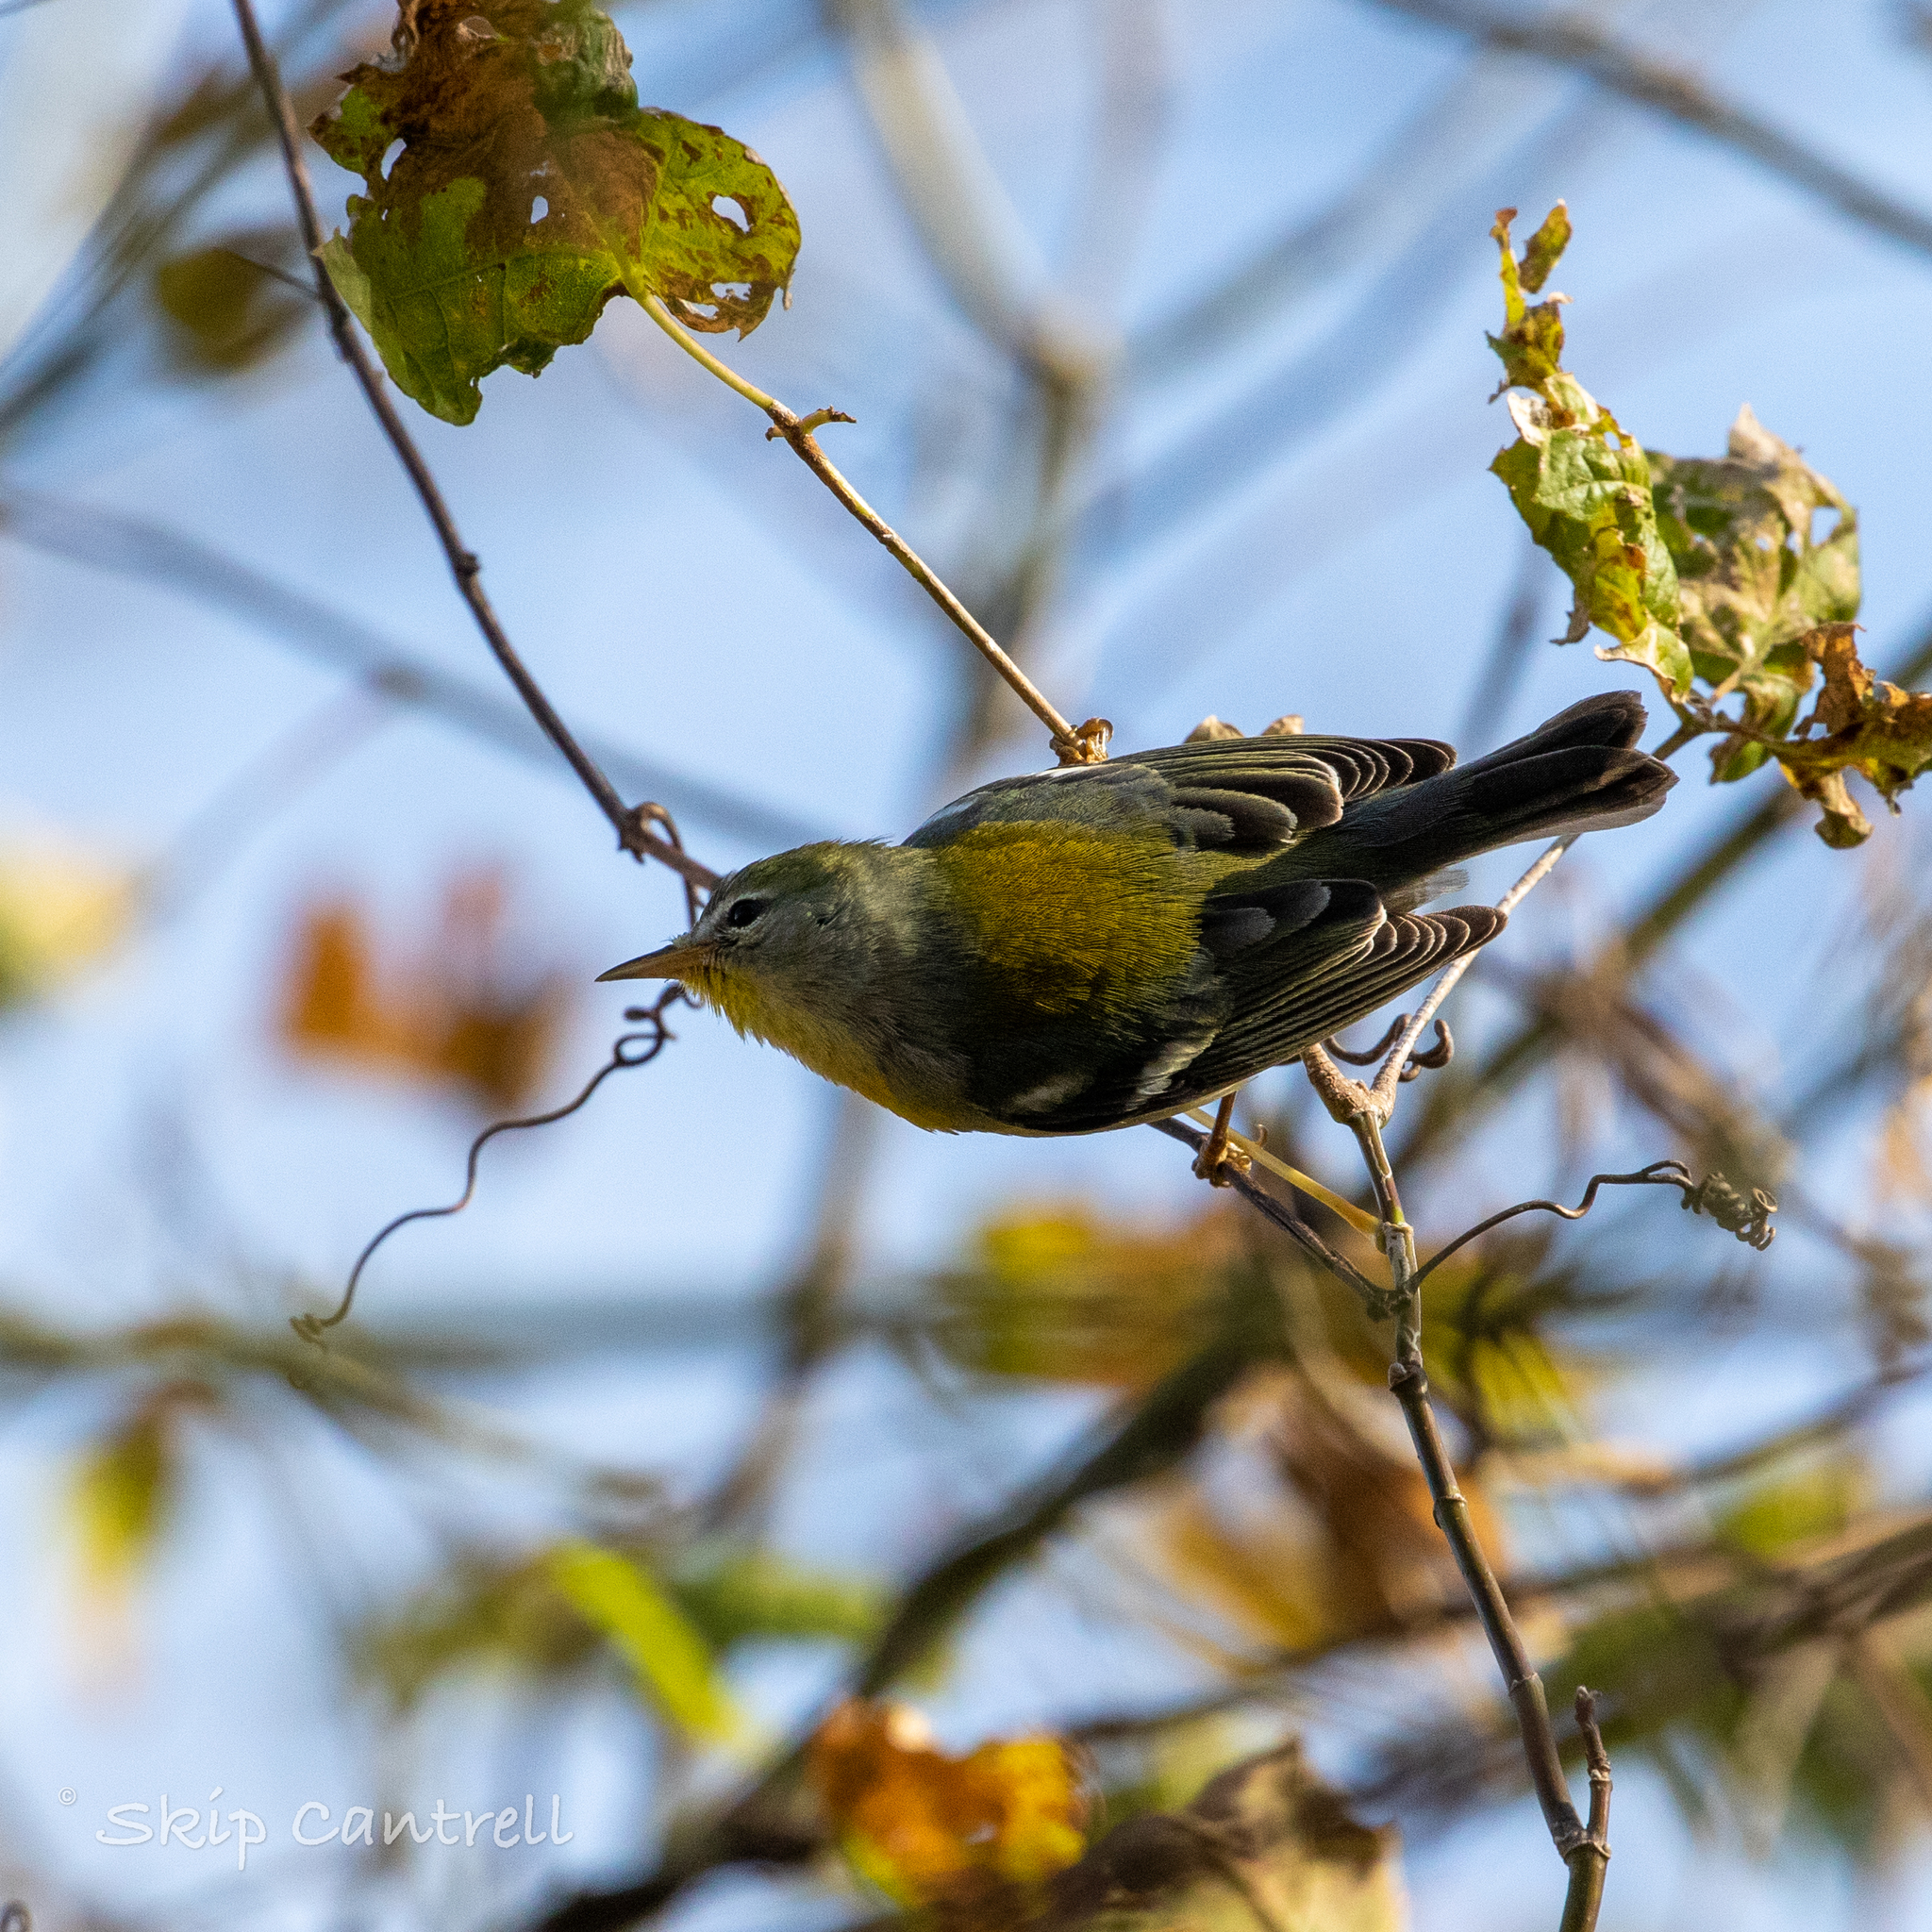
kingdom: Animalia
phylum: Chordata
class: Aves
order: Passeriformes
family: Parulidae
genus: Setophaga
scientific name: Setophaga americana
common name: Northern parula
